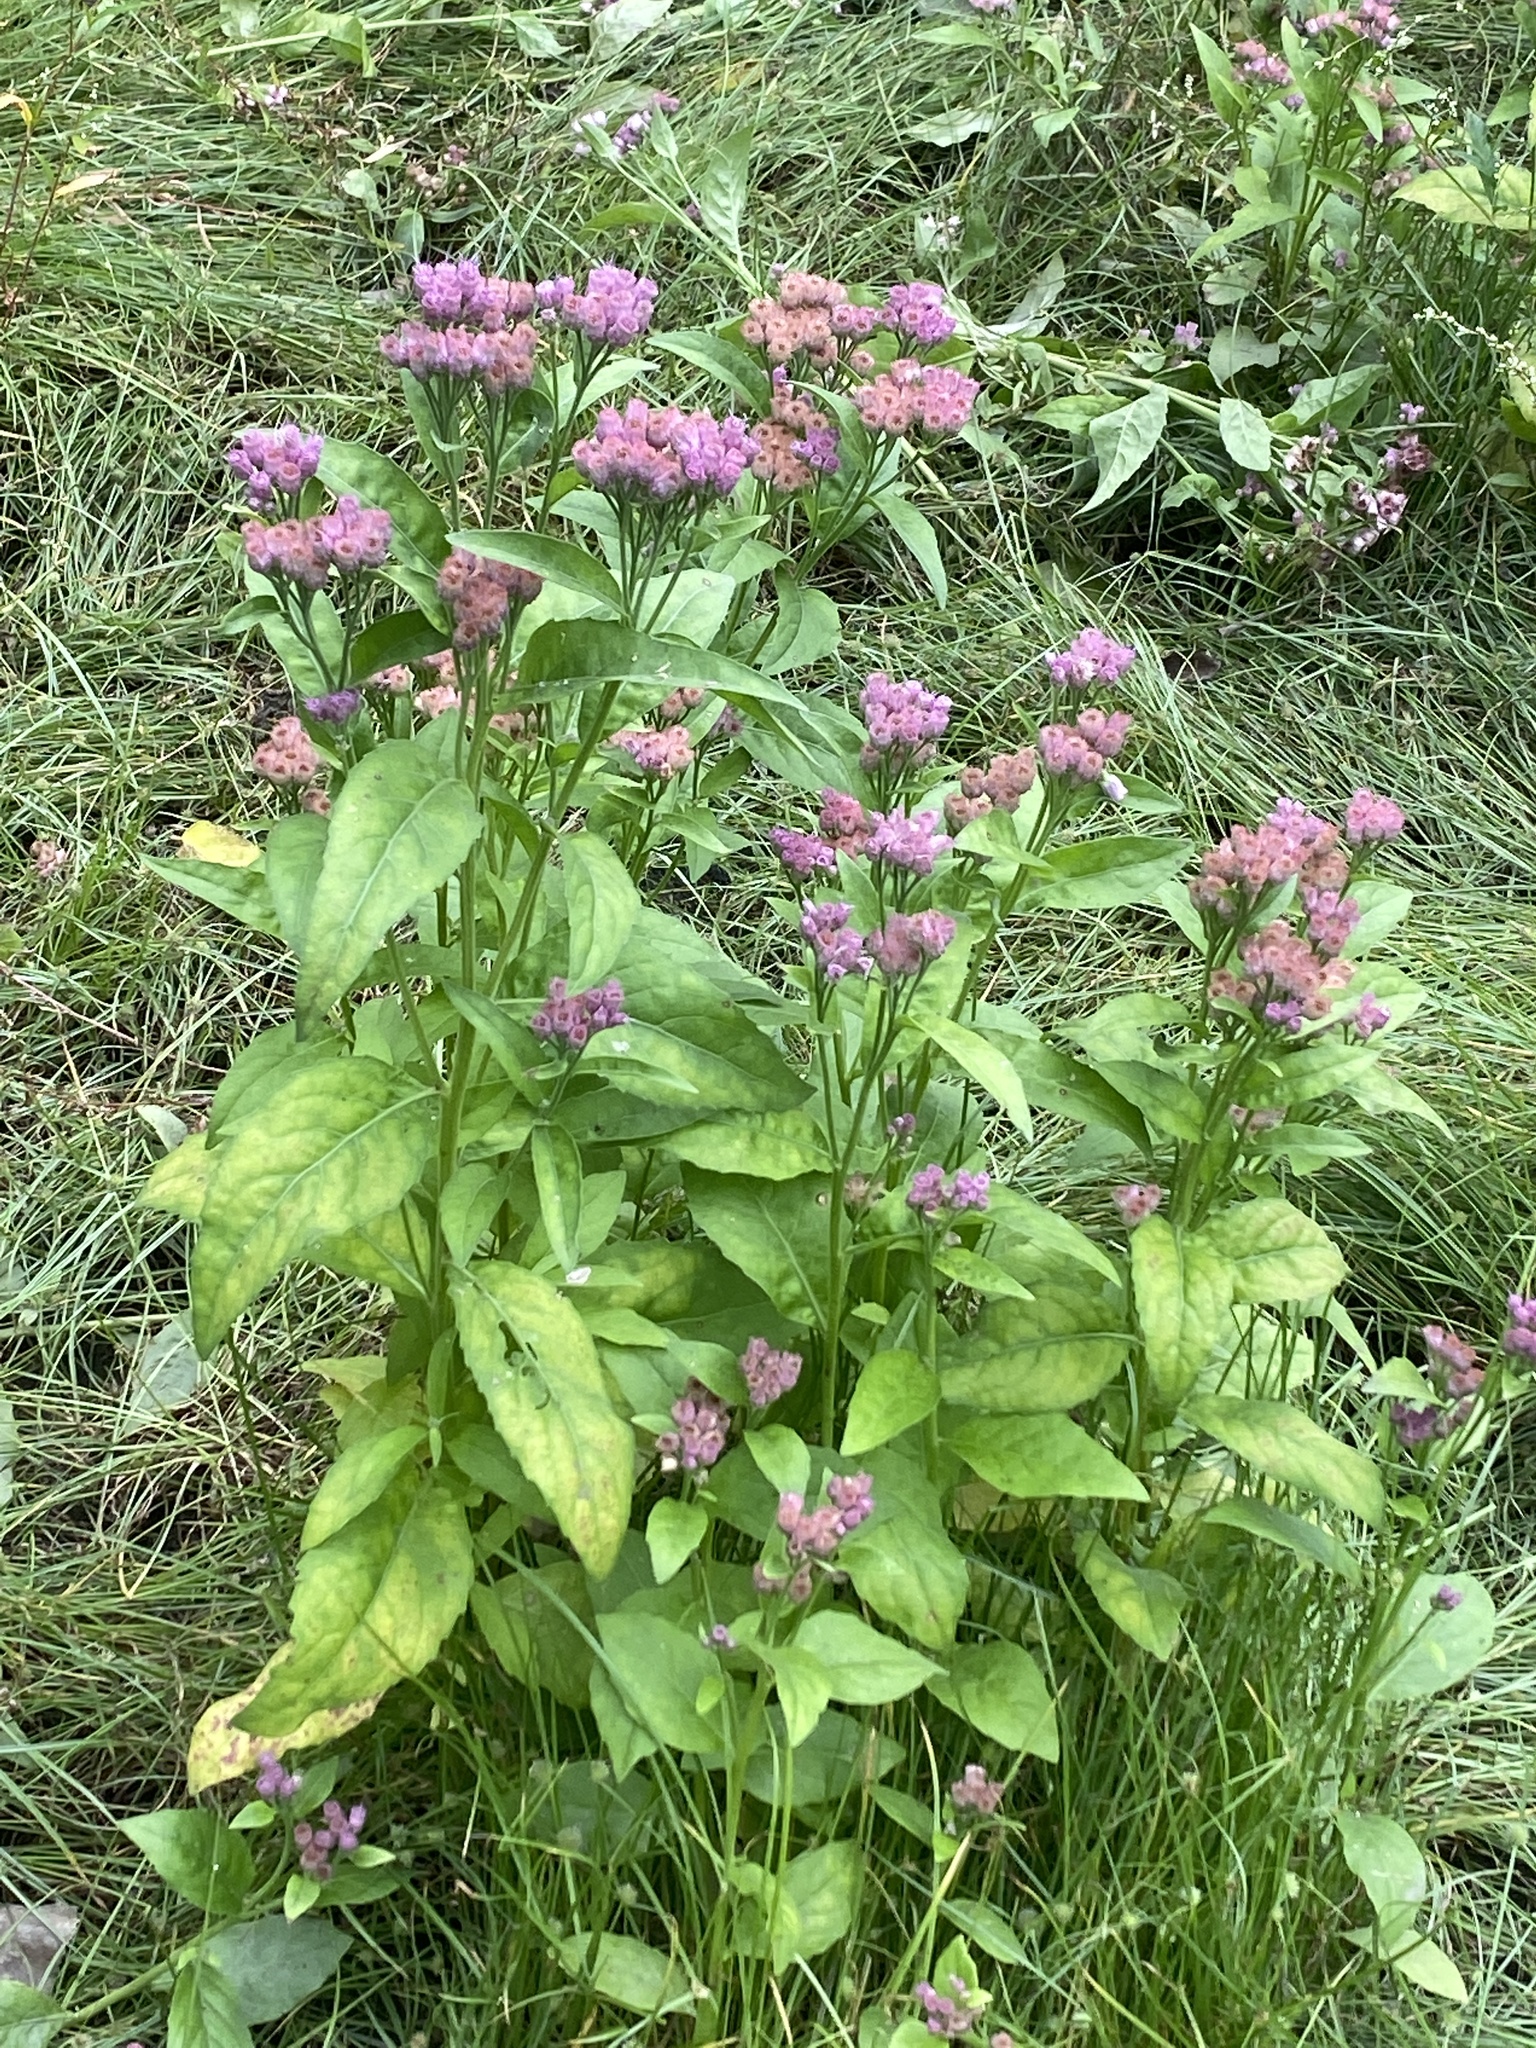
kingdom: Plantae
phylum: Tracheophyta
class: Magnoliopsida
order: Asterales
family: Asteraceae
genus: Pluchea
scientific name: Pluchea odorata
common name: Saltmarsh fleabane
